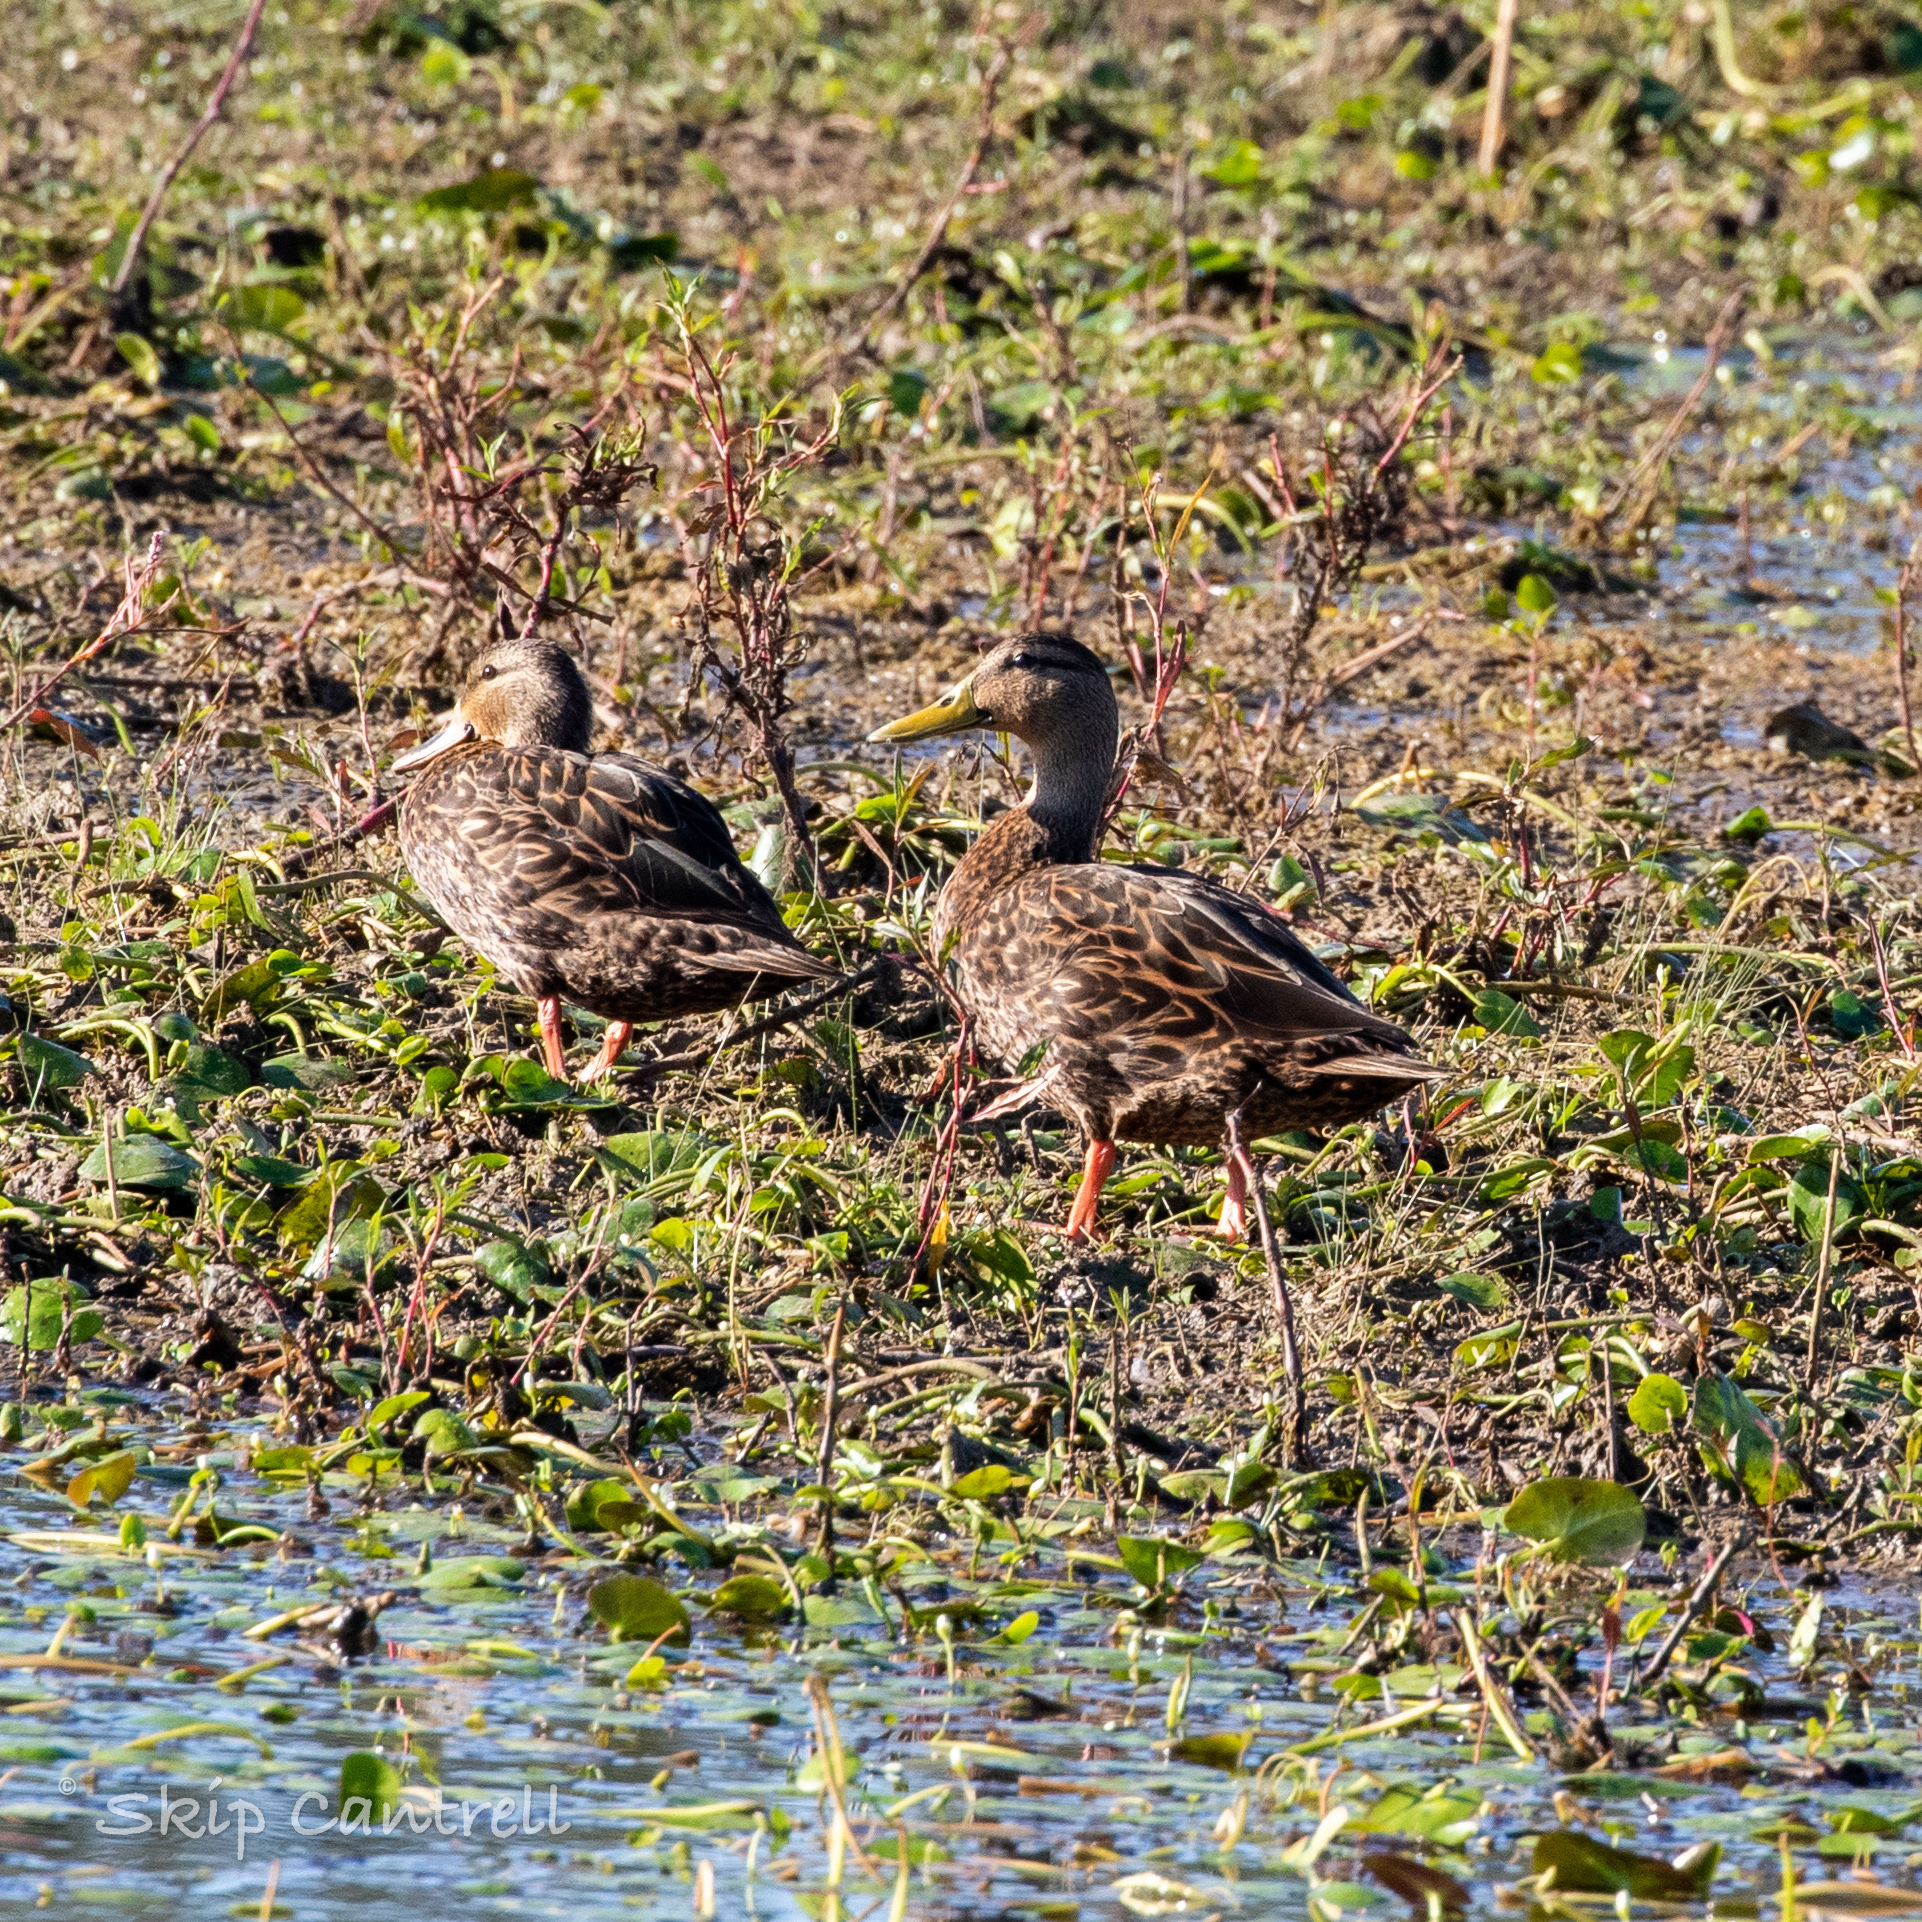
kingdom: Animalia
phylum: Chordata
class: Aves
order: Anseriformes
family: Anatidae
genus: Anas
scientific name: Anas fulvigula
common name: Mottled duck
